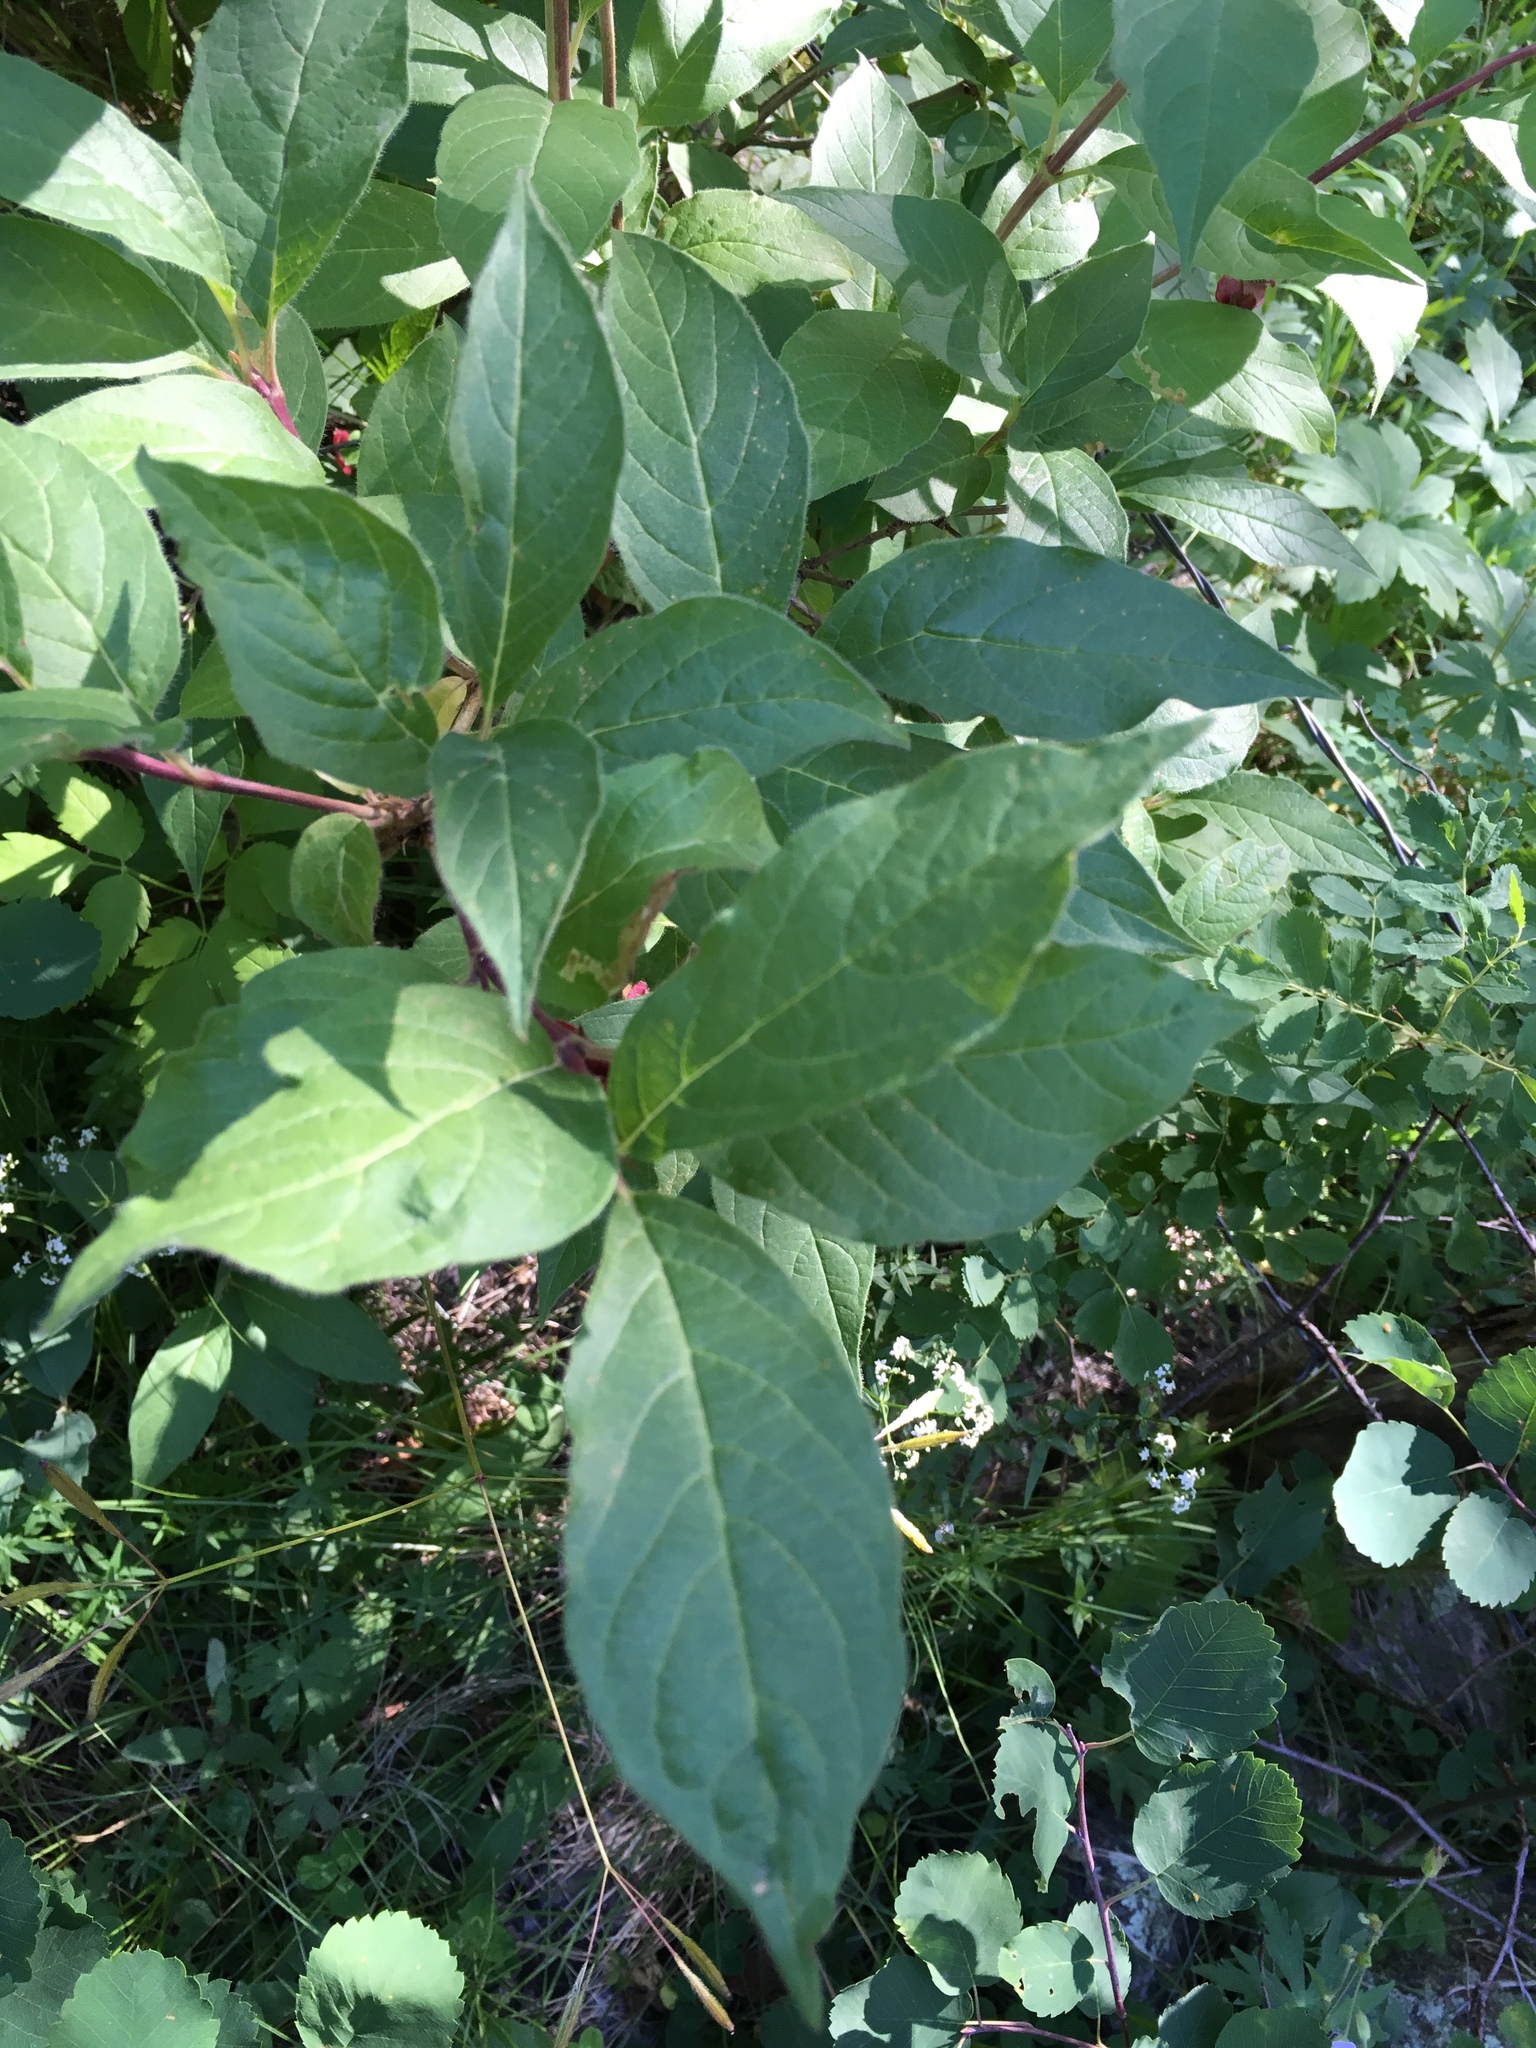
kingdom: Plantae
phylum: Tracheophyta
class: Magnoliopsida
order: Dipsacales
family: Caprifoliaceae
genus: Lonicera
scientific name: Lonicera involucrata
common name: Californian honeysuckle
